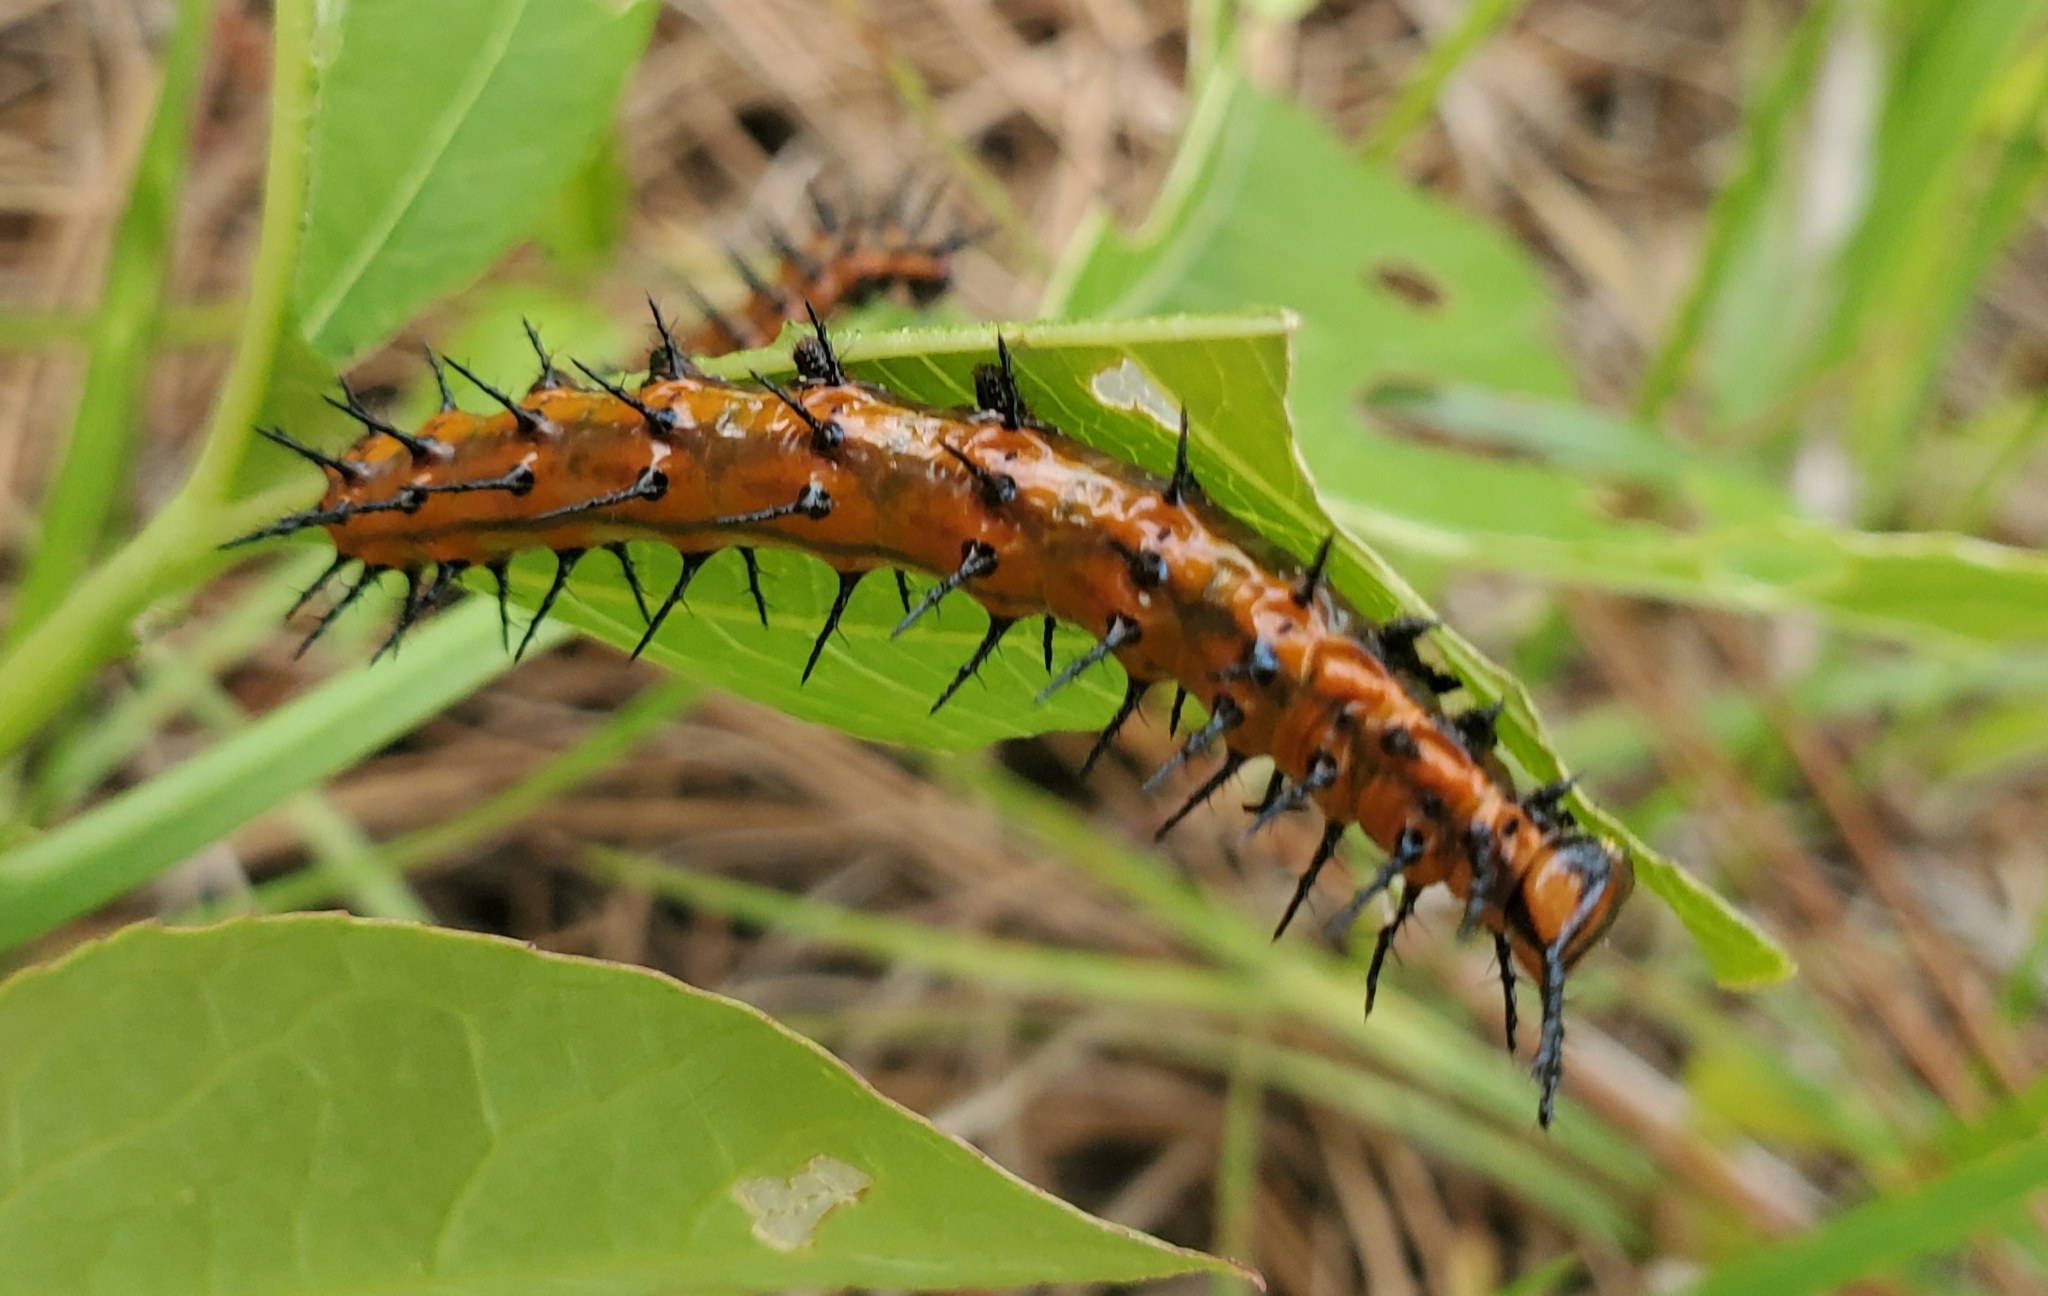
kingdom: Animalia
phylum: Arthropoda
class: Insecta
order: Lepidoptera
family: Nymphalidae
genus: Dione
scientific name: Dione vanillae
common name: Gulf fritillary
